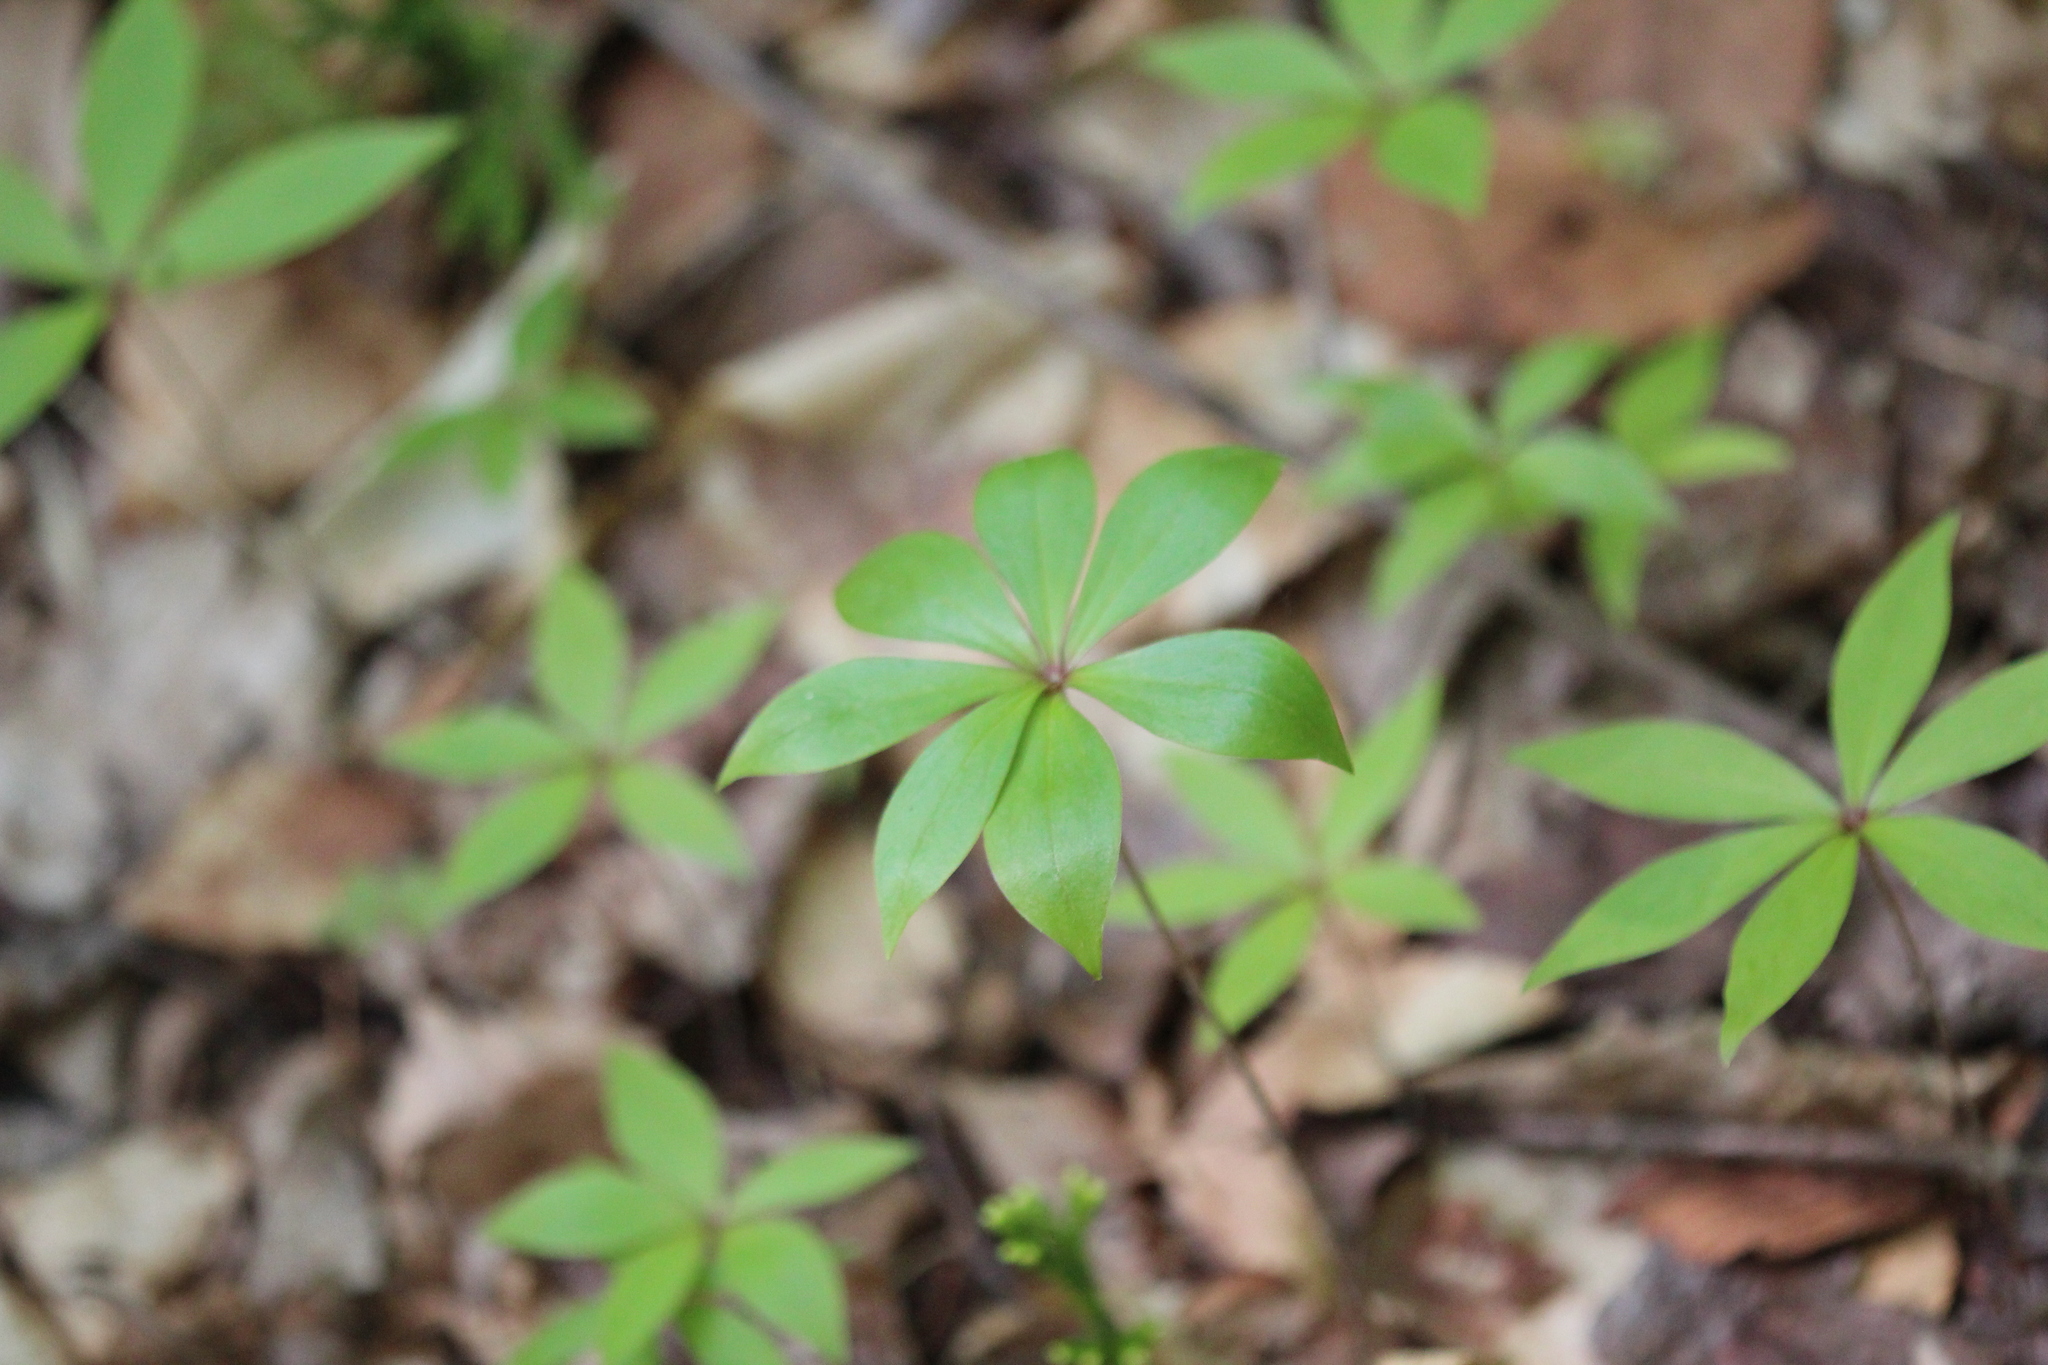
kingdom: Plantae
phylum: Tracheophyta
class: Liliopsida
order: Liliales
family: Liliaceae
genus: Medeola
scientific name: Medeola virginiana
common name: Indian cucumber-root
